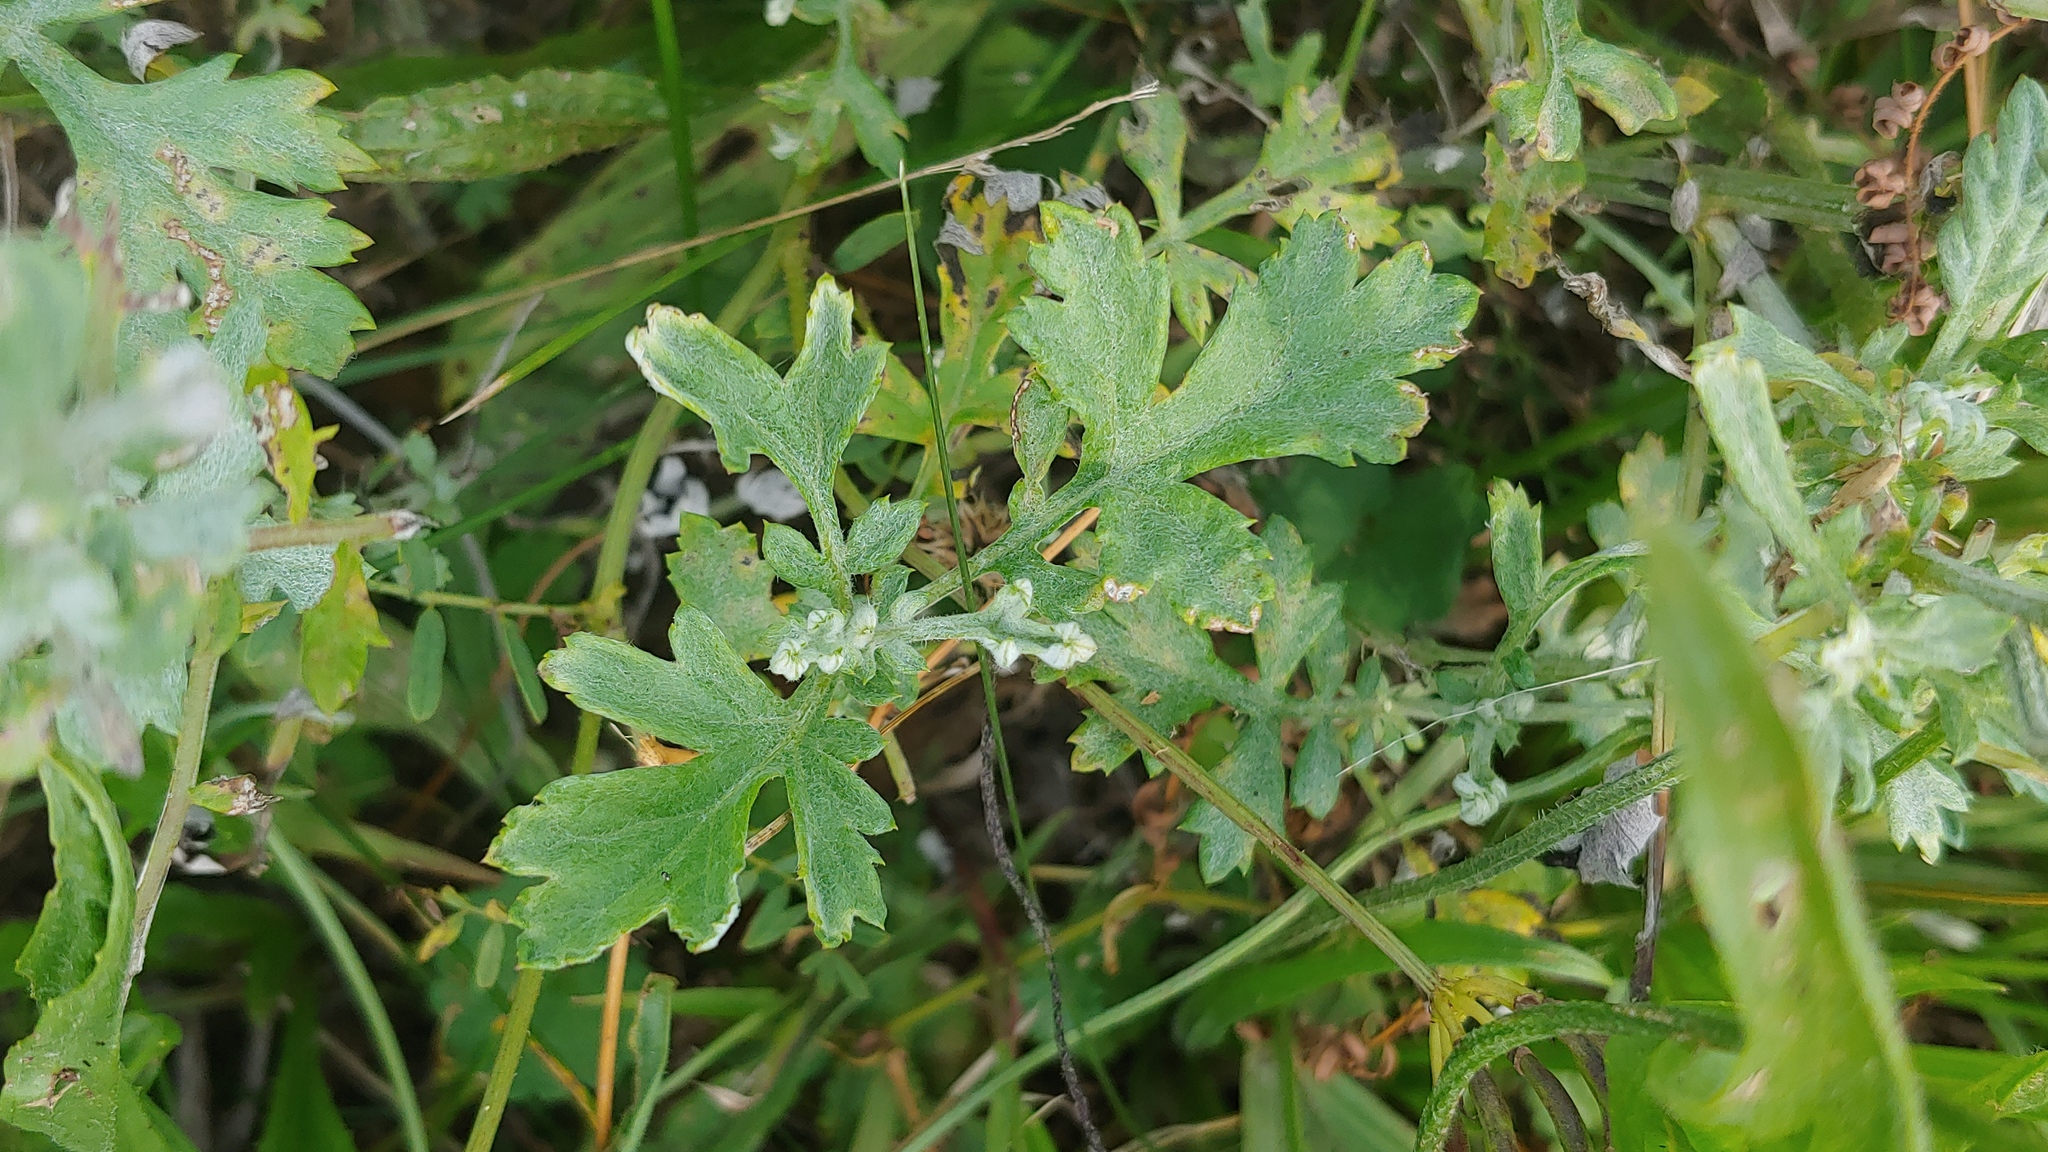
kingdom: Plantae
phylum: Tracheophyta
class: Magnoliopsida
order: Asterales
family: Asteraceae
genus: Artemisia
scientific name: Artemisia vulgaris
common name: Mugwort
